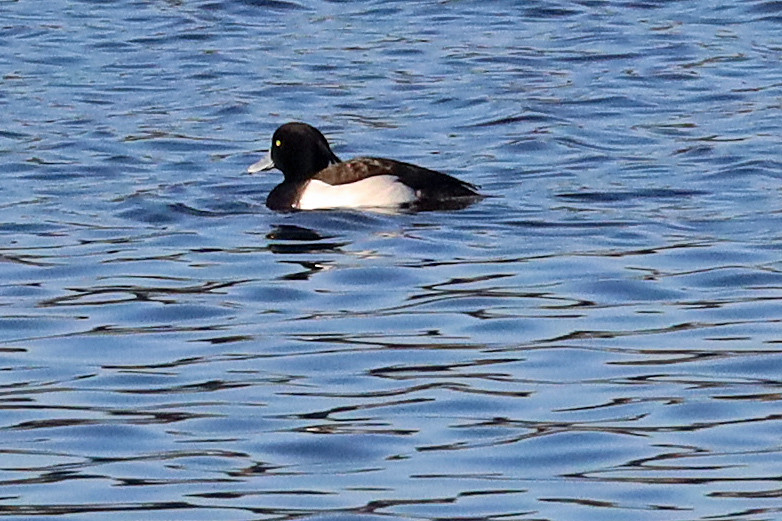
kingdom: Animalia
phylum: Chordata
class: Aves
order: Anseriformes
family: Anatidae
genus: Aythya
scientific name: Aythya fuligula
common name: Tufted duck
